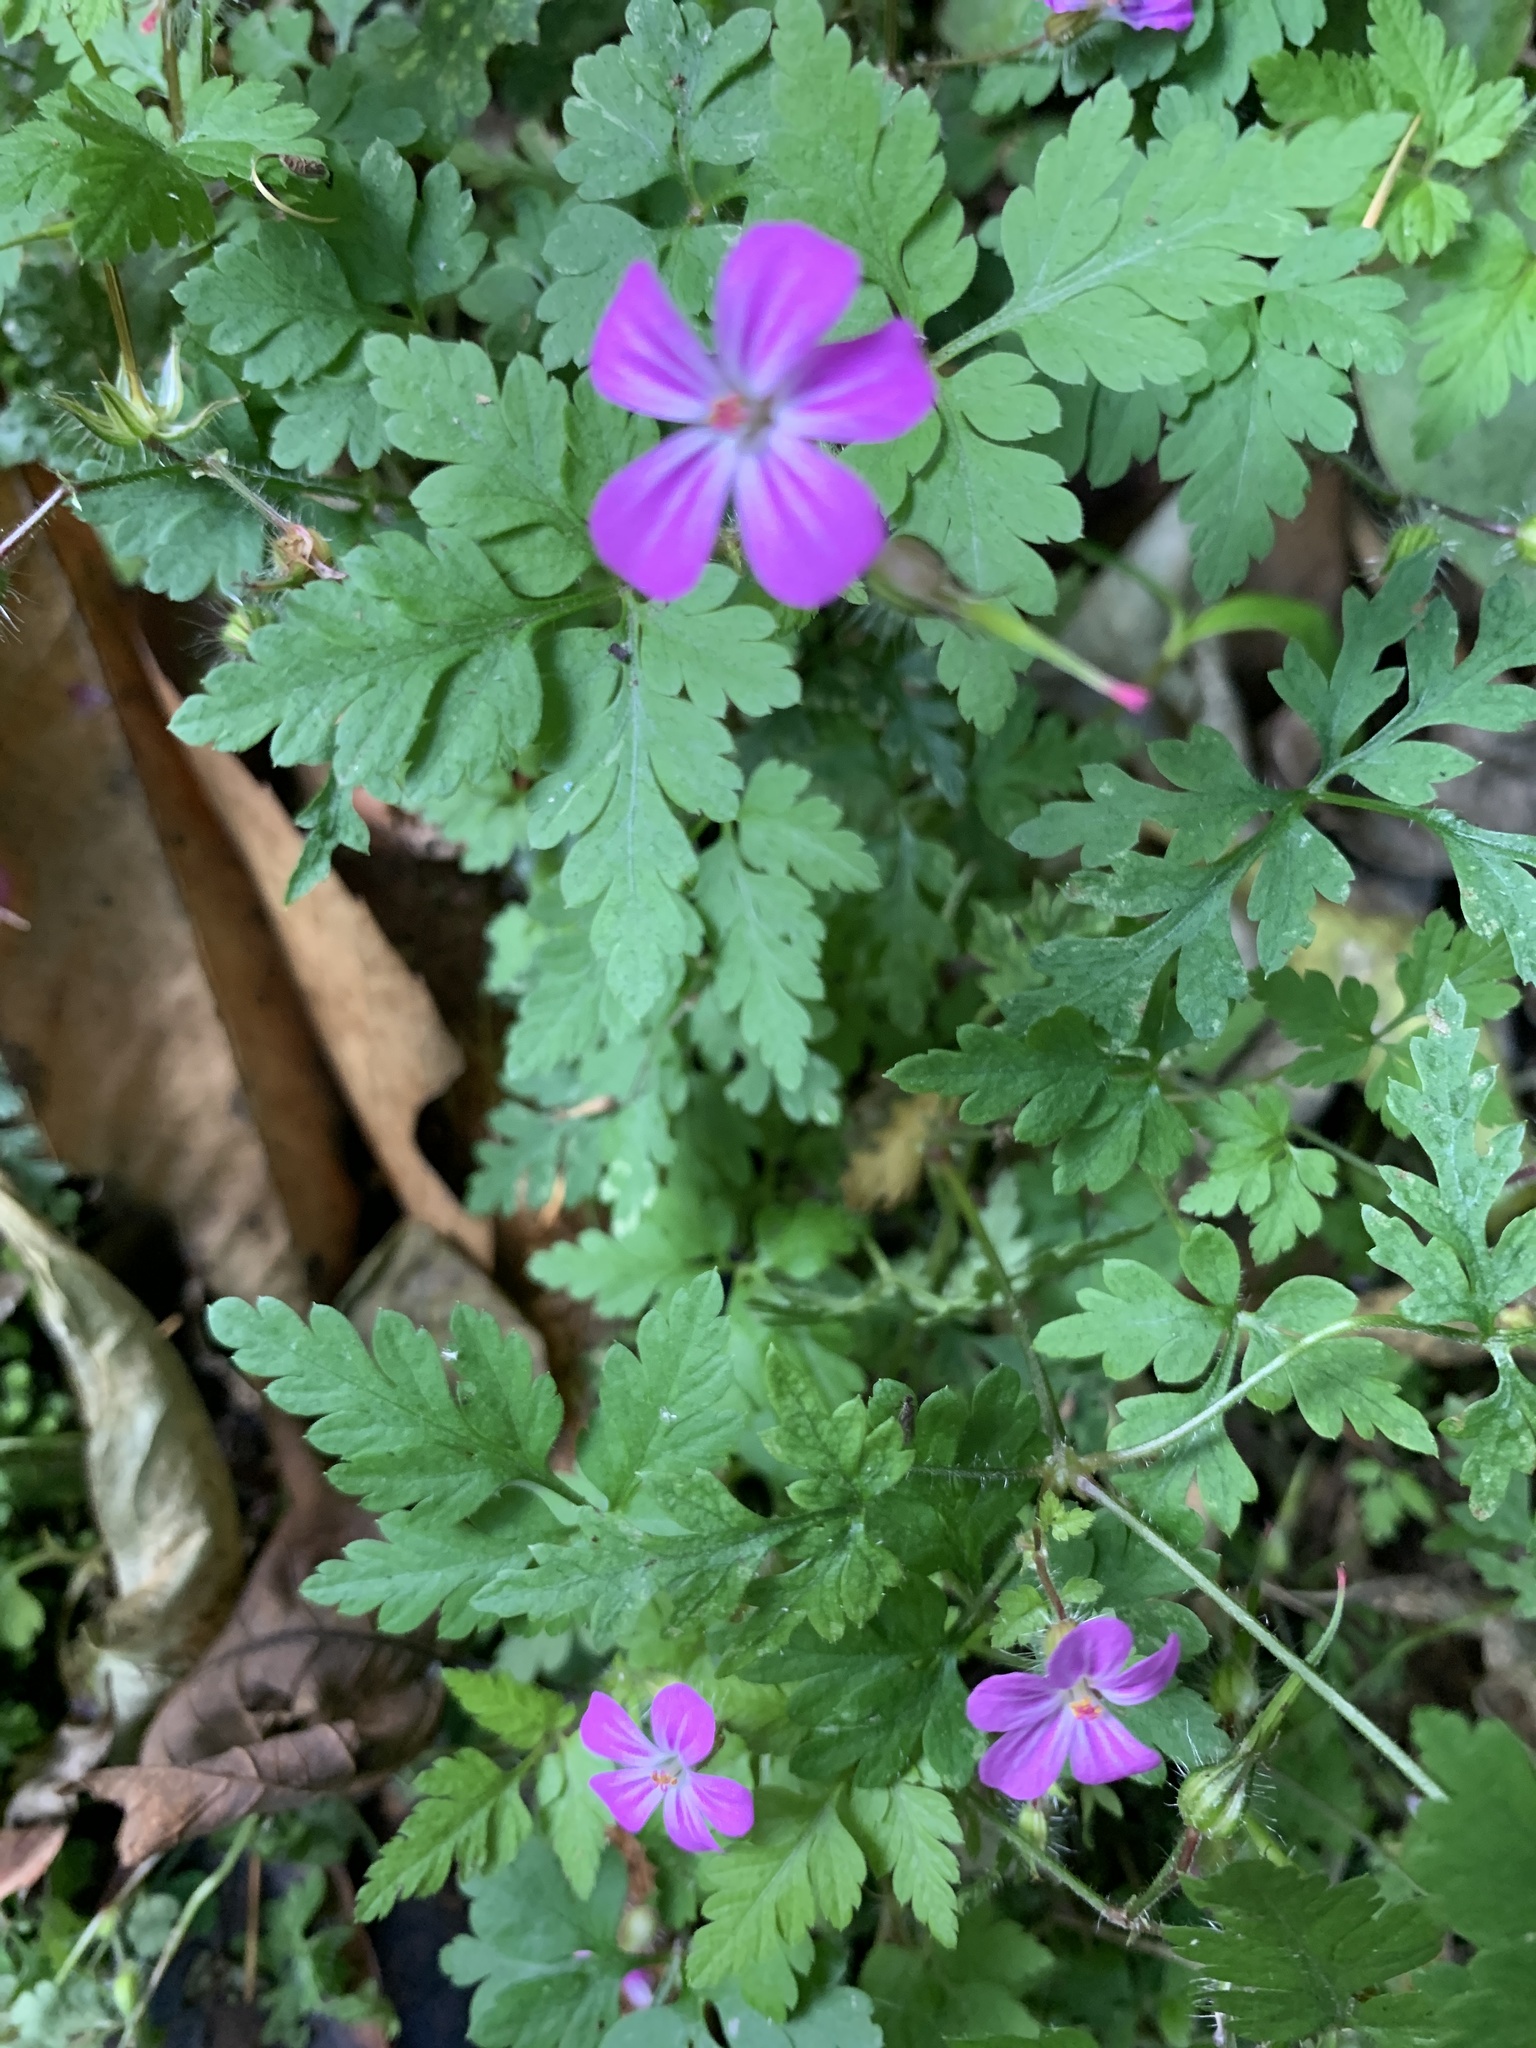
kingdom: Plantae
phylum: Tracheophyta
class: Magnoliopsida
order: Geraniales
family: Geraniaceae
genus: Geranium
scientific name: Geranium robertianum
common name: Herb-robert
